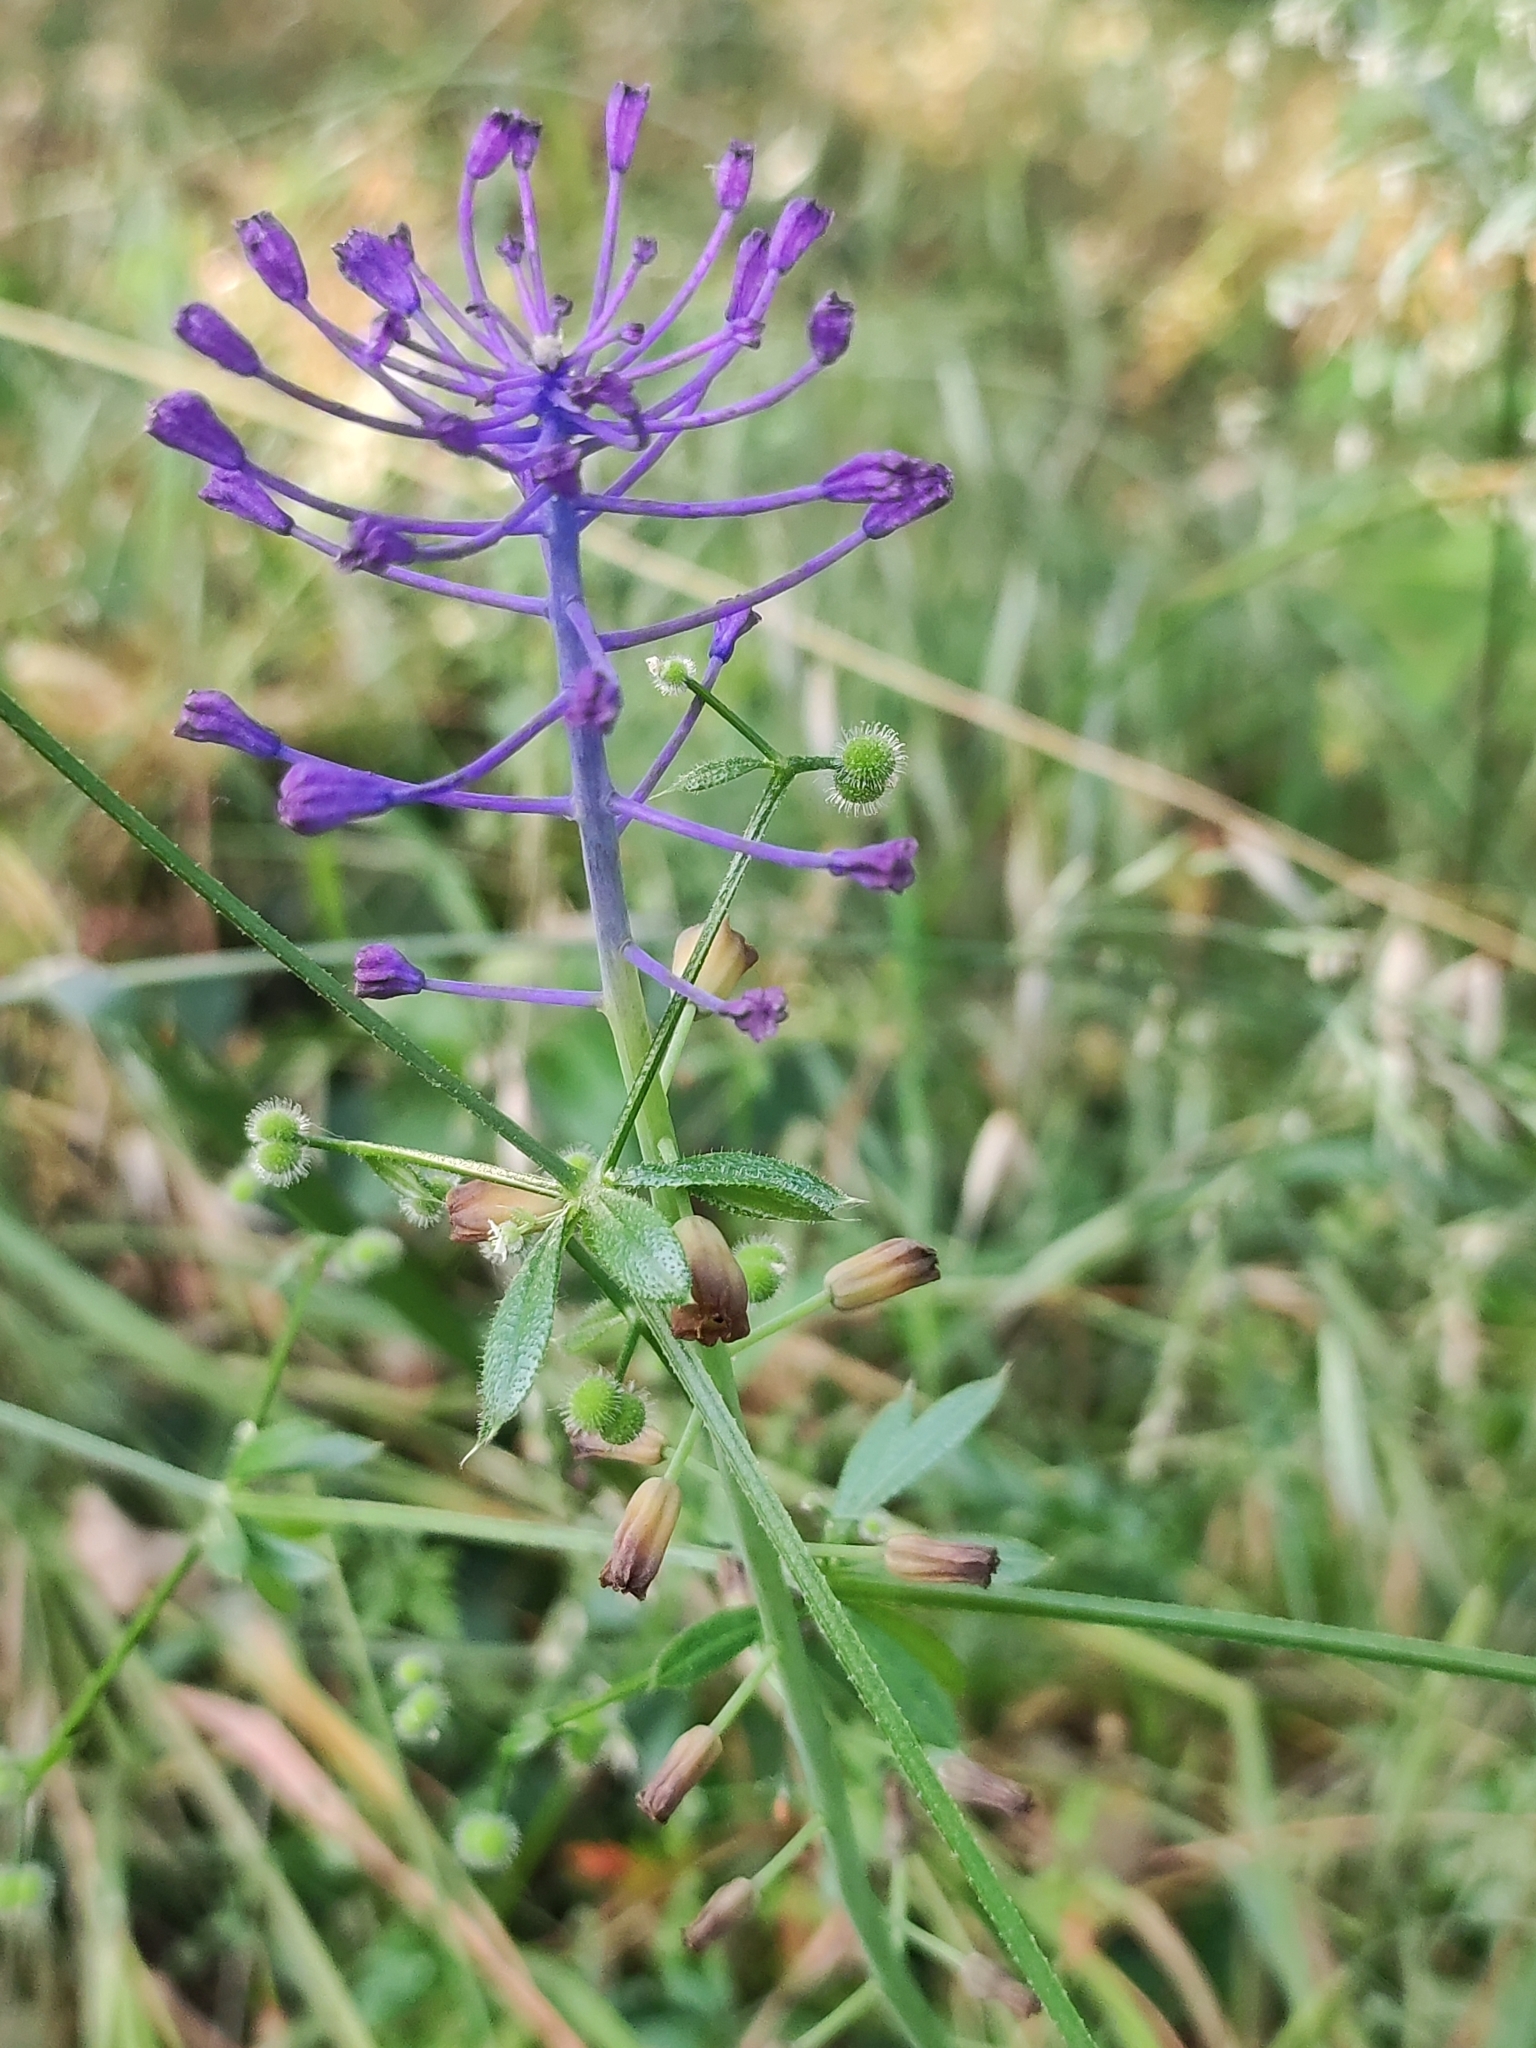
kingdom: Plantae
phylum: Tracheophyta
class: Liliopsida
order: Asparagales
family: Asparagaceae
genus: Muscari
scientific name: Muscari comosum
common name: Tassel hyacinth
